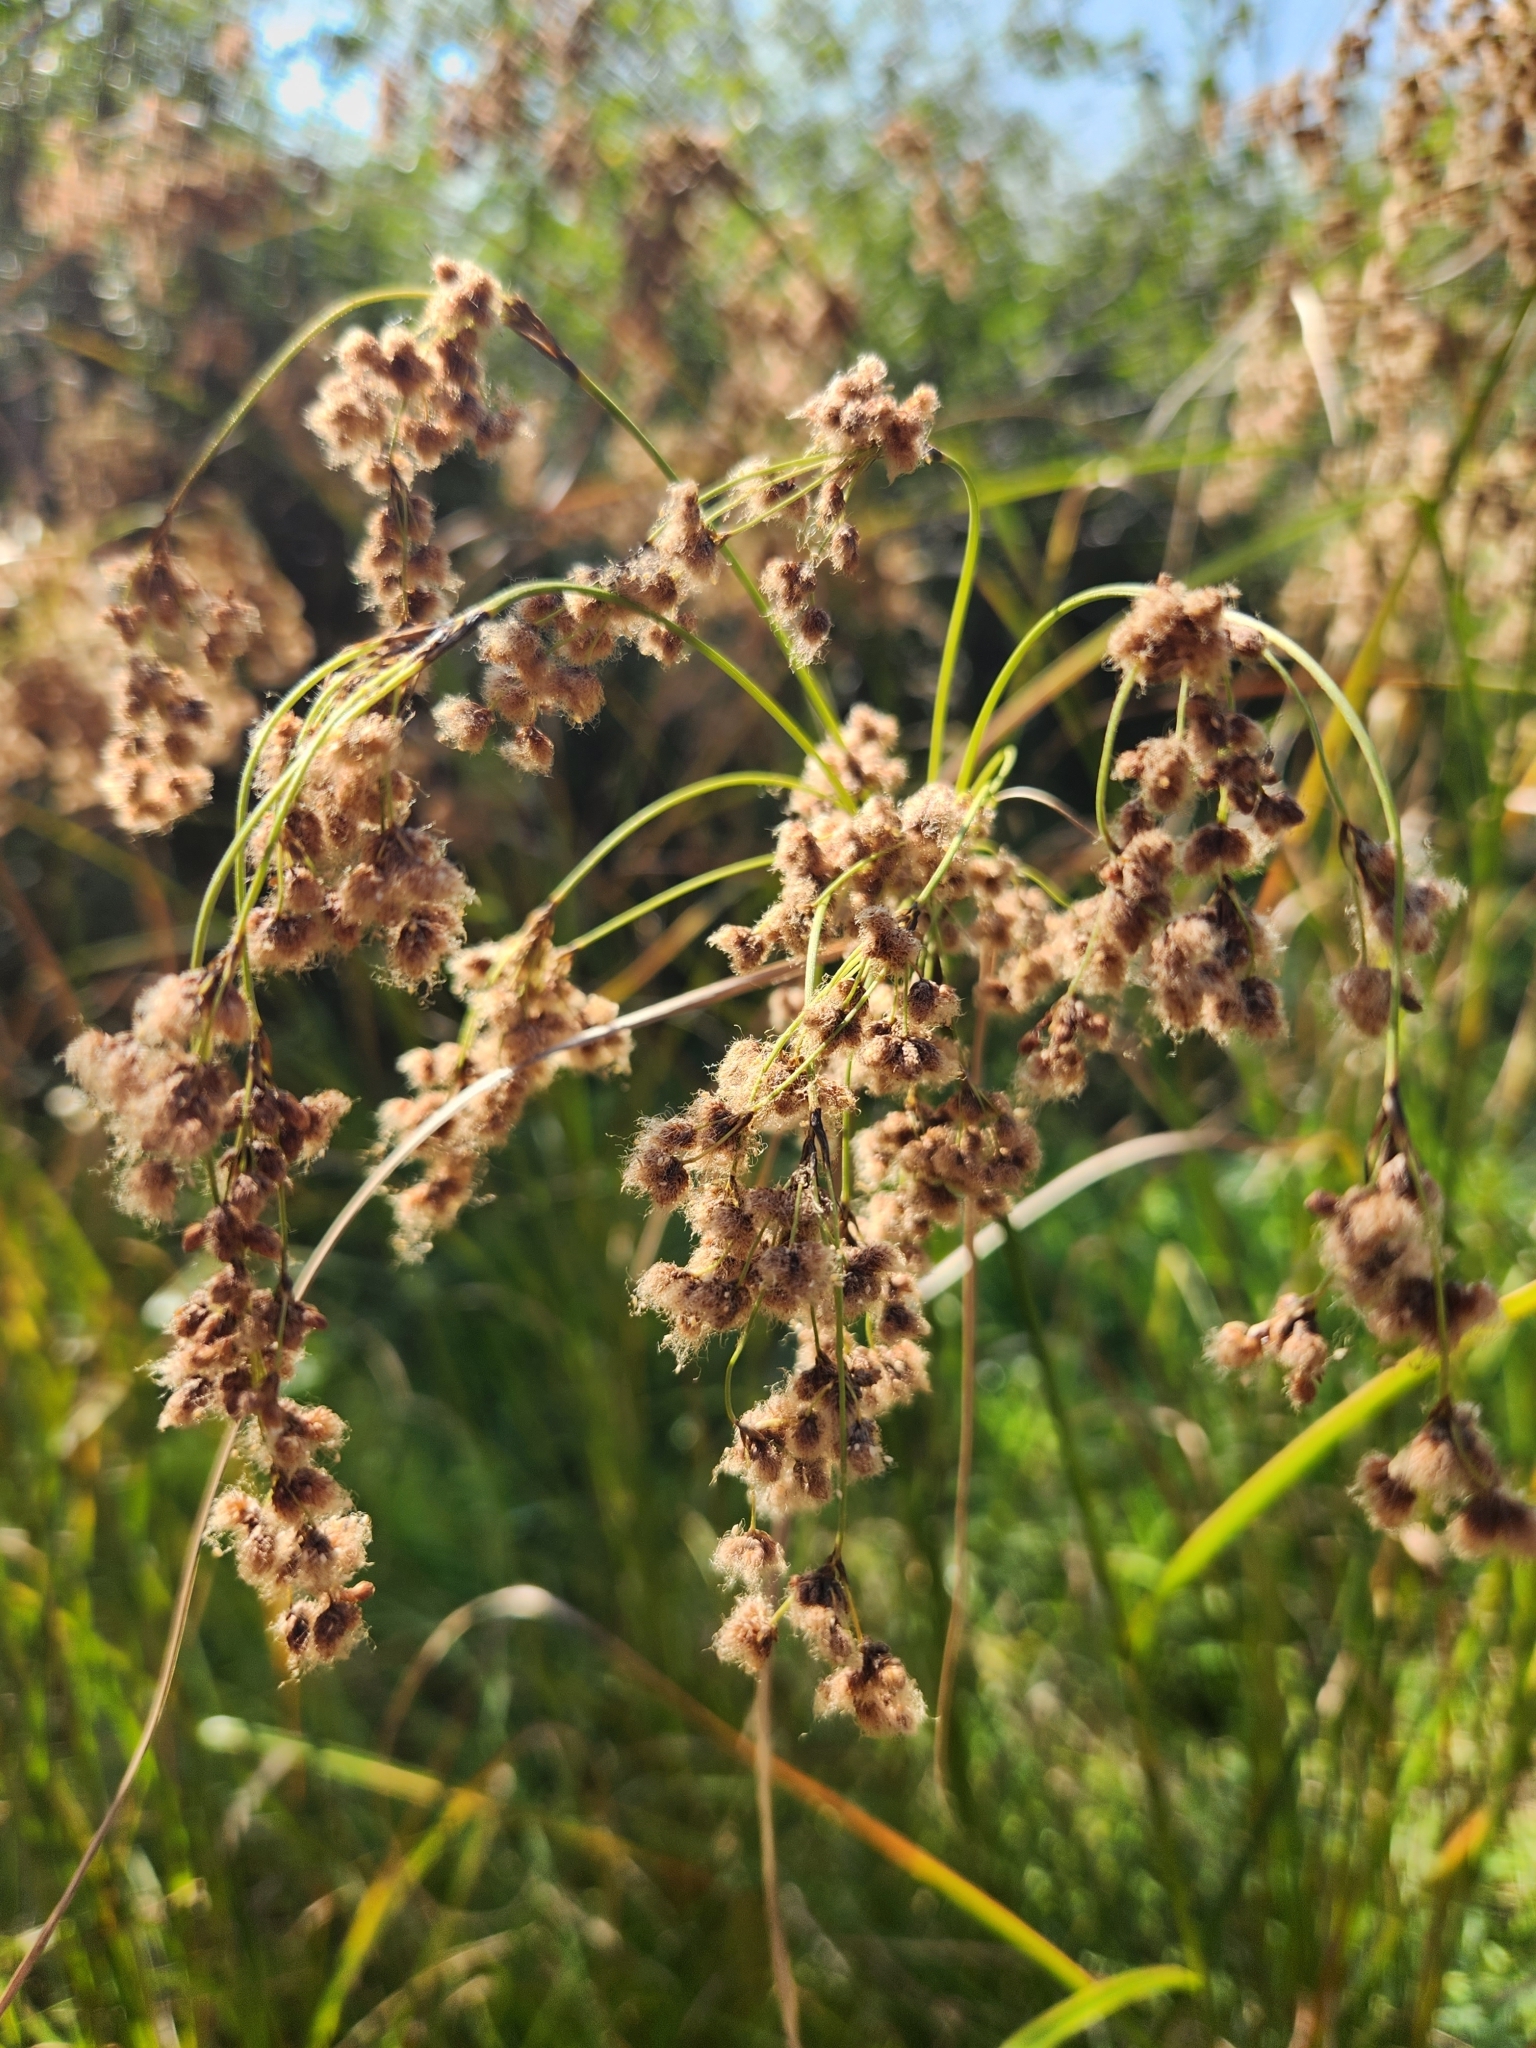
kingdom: Plantae
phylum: Tracheophyta
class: Liliopsida
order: Poales
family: Cyperaceae
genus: Scirpus
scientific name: Scirpus cyperinus
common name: Black-sheathed bulrush
